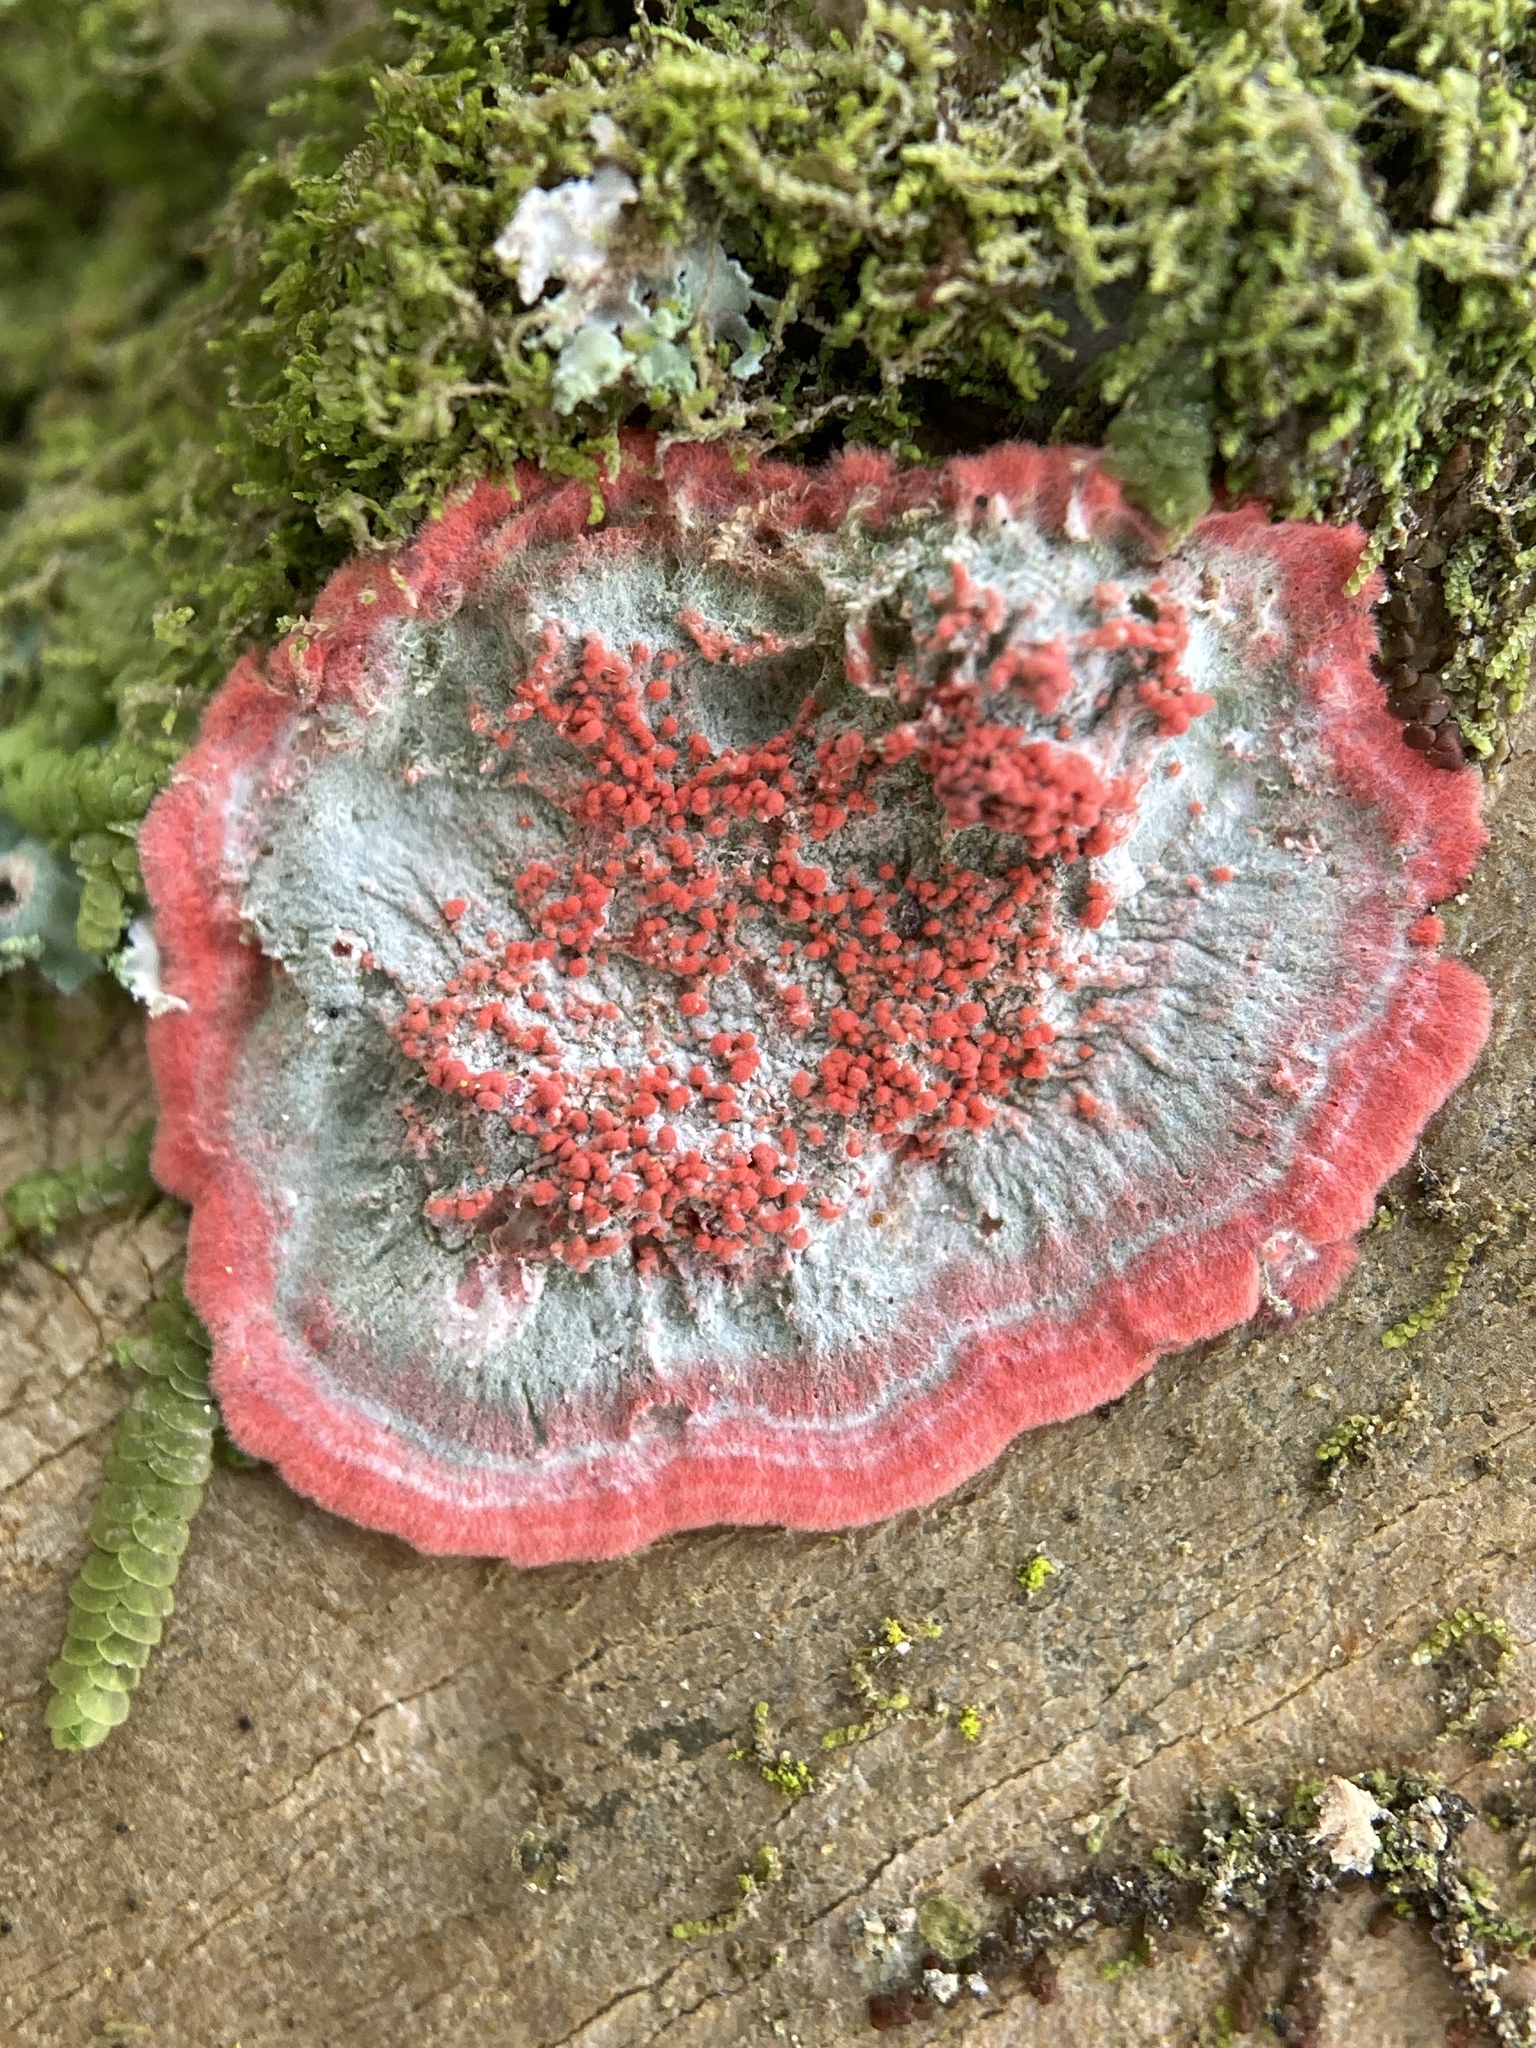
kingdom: Fungi
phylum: Ascomycota
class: Arthoniomycetes
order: Arthoniales
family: Arthoniaceae
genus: Herpothallon
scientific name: Herpothallon rubrocinctum
